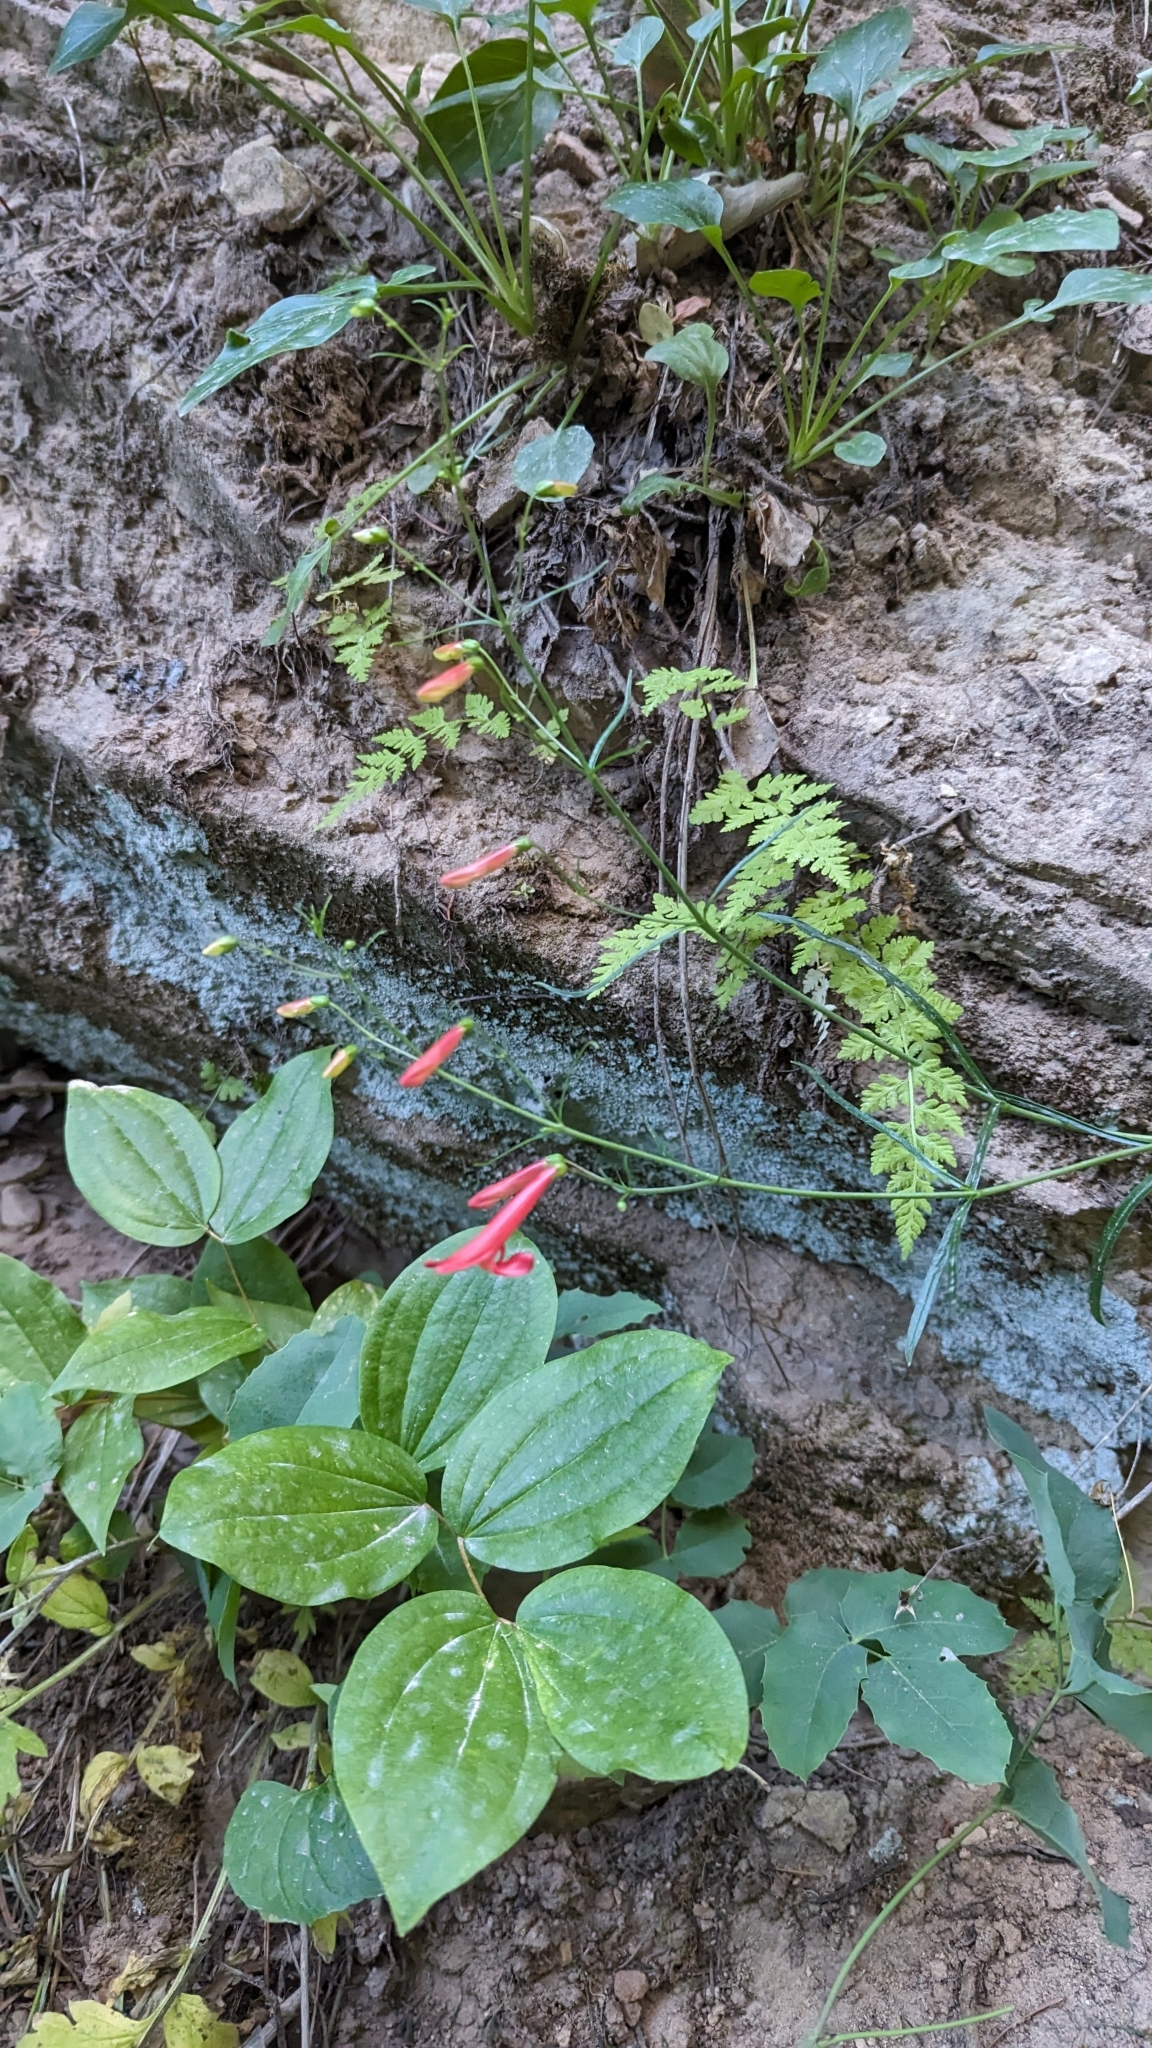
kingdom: Plantae
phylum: Tracheophyta
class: Magnoliopsida
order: Lamiales
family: Plantaginaceae
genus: Penstemon
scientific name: Penstemon barbatus
